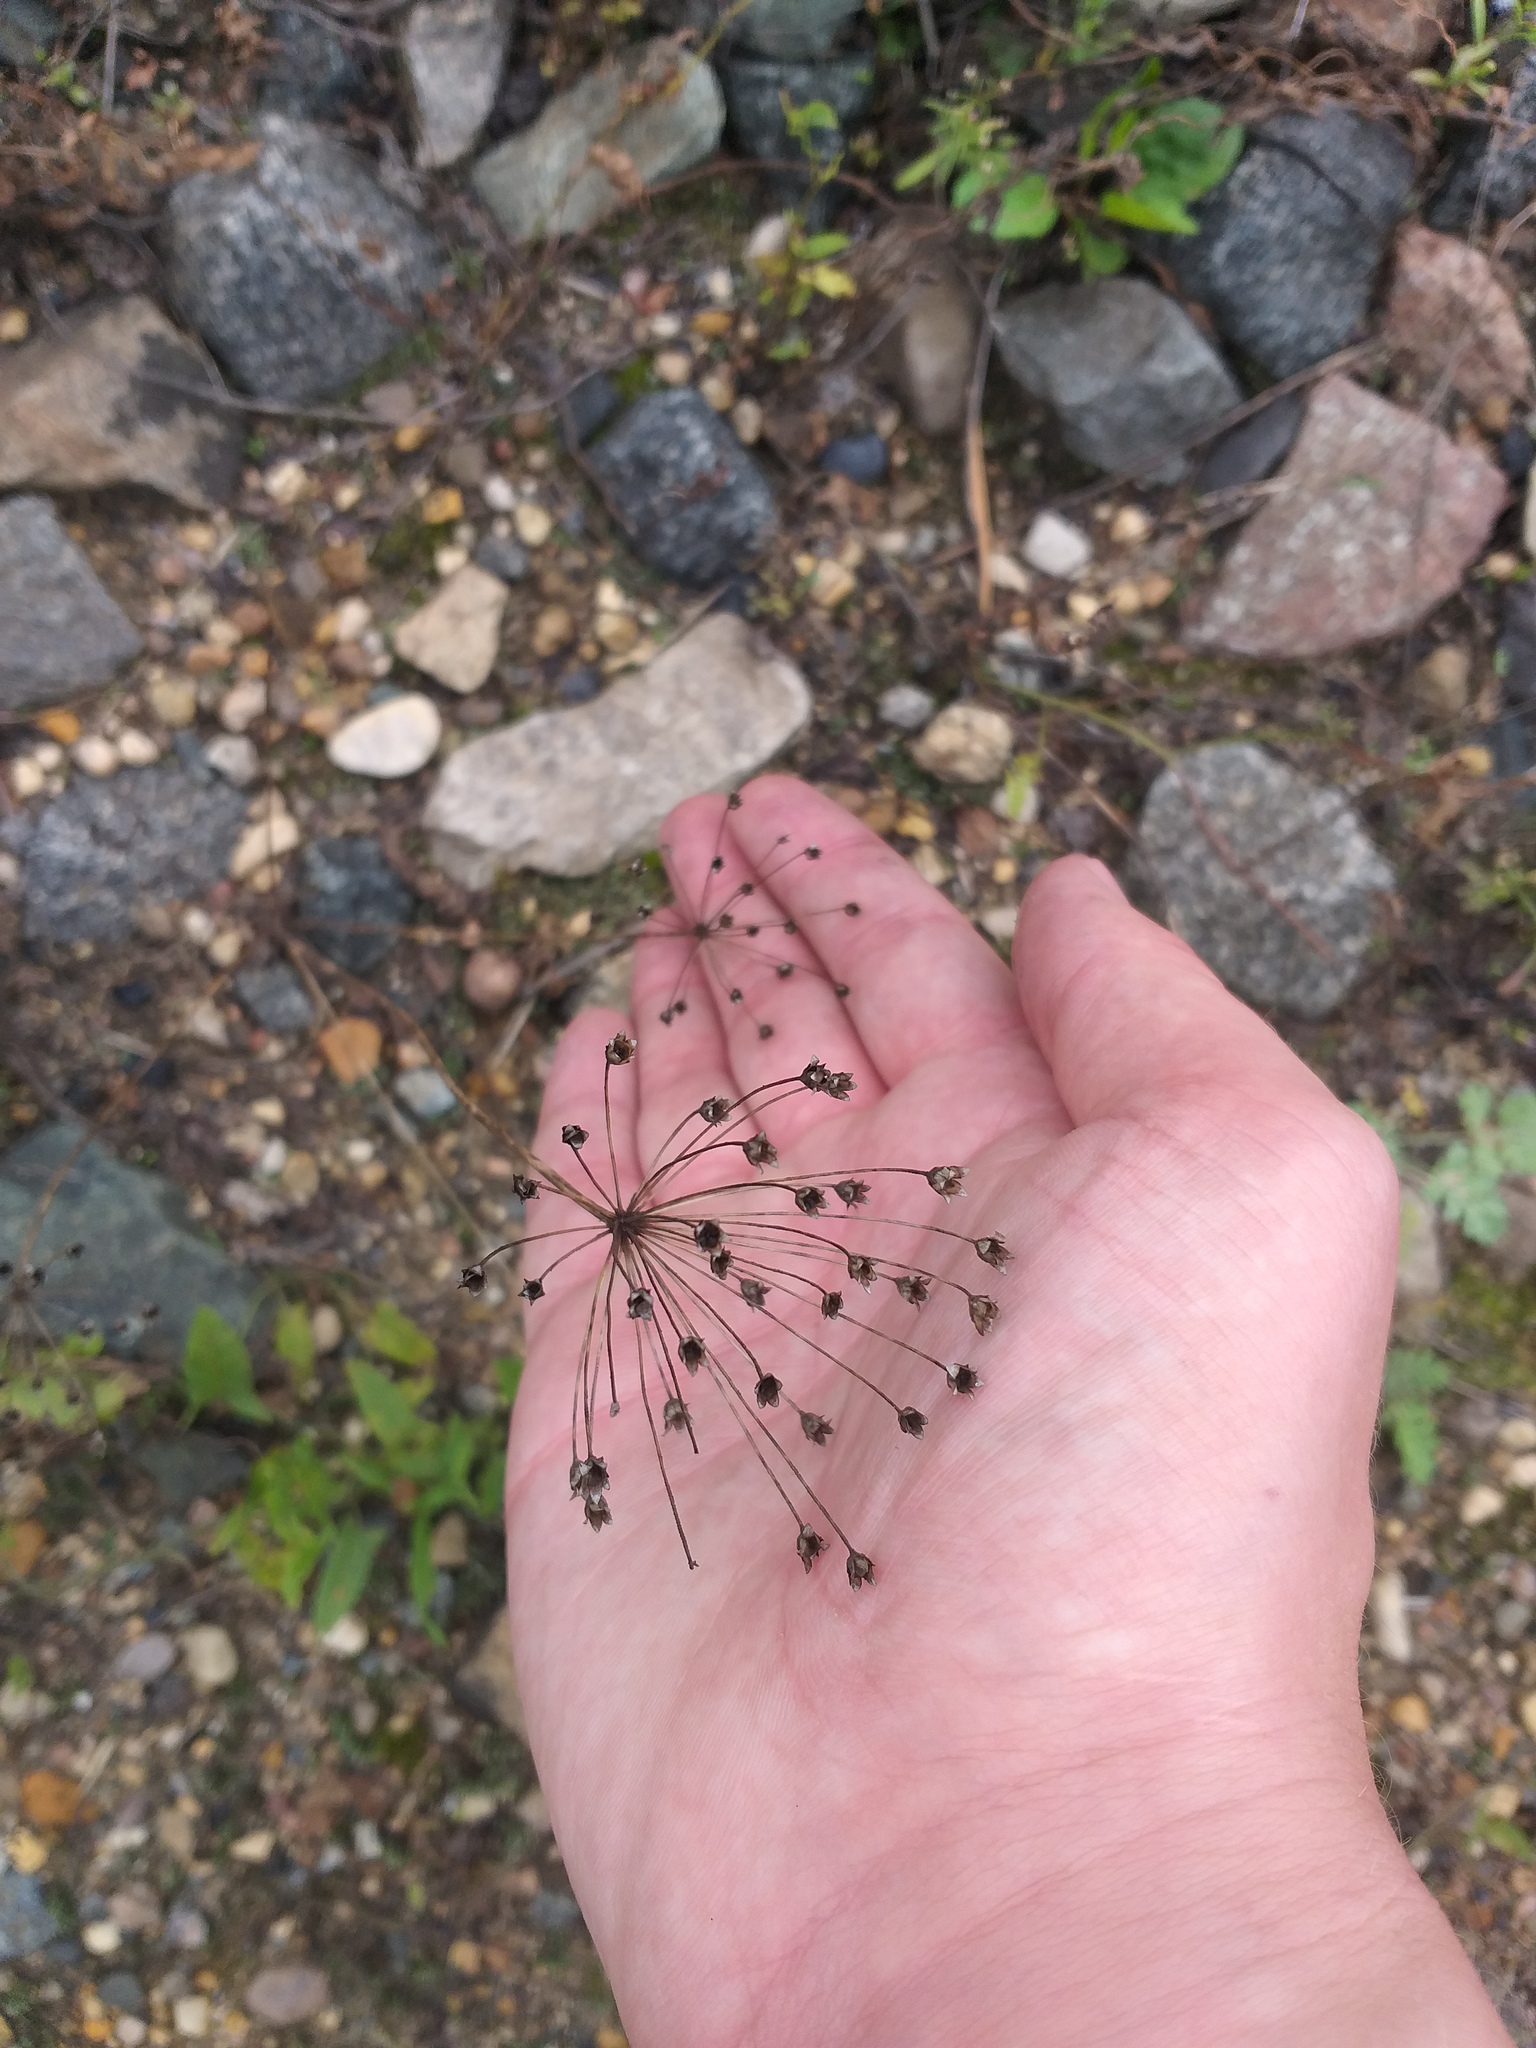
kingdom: Plantae
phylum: Tracheophyta
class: Magnoliopsida
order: Ericales
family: Primulaceae
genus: Androsace
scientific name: Androsace septentrionalis
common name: Hairy northern fairy-candelabra
